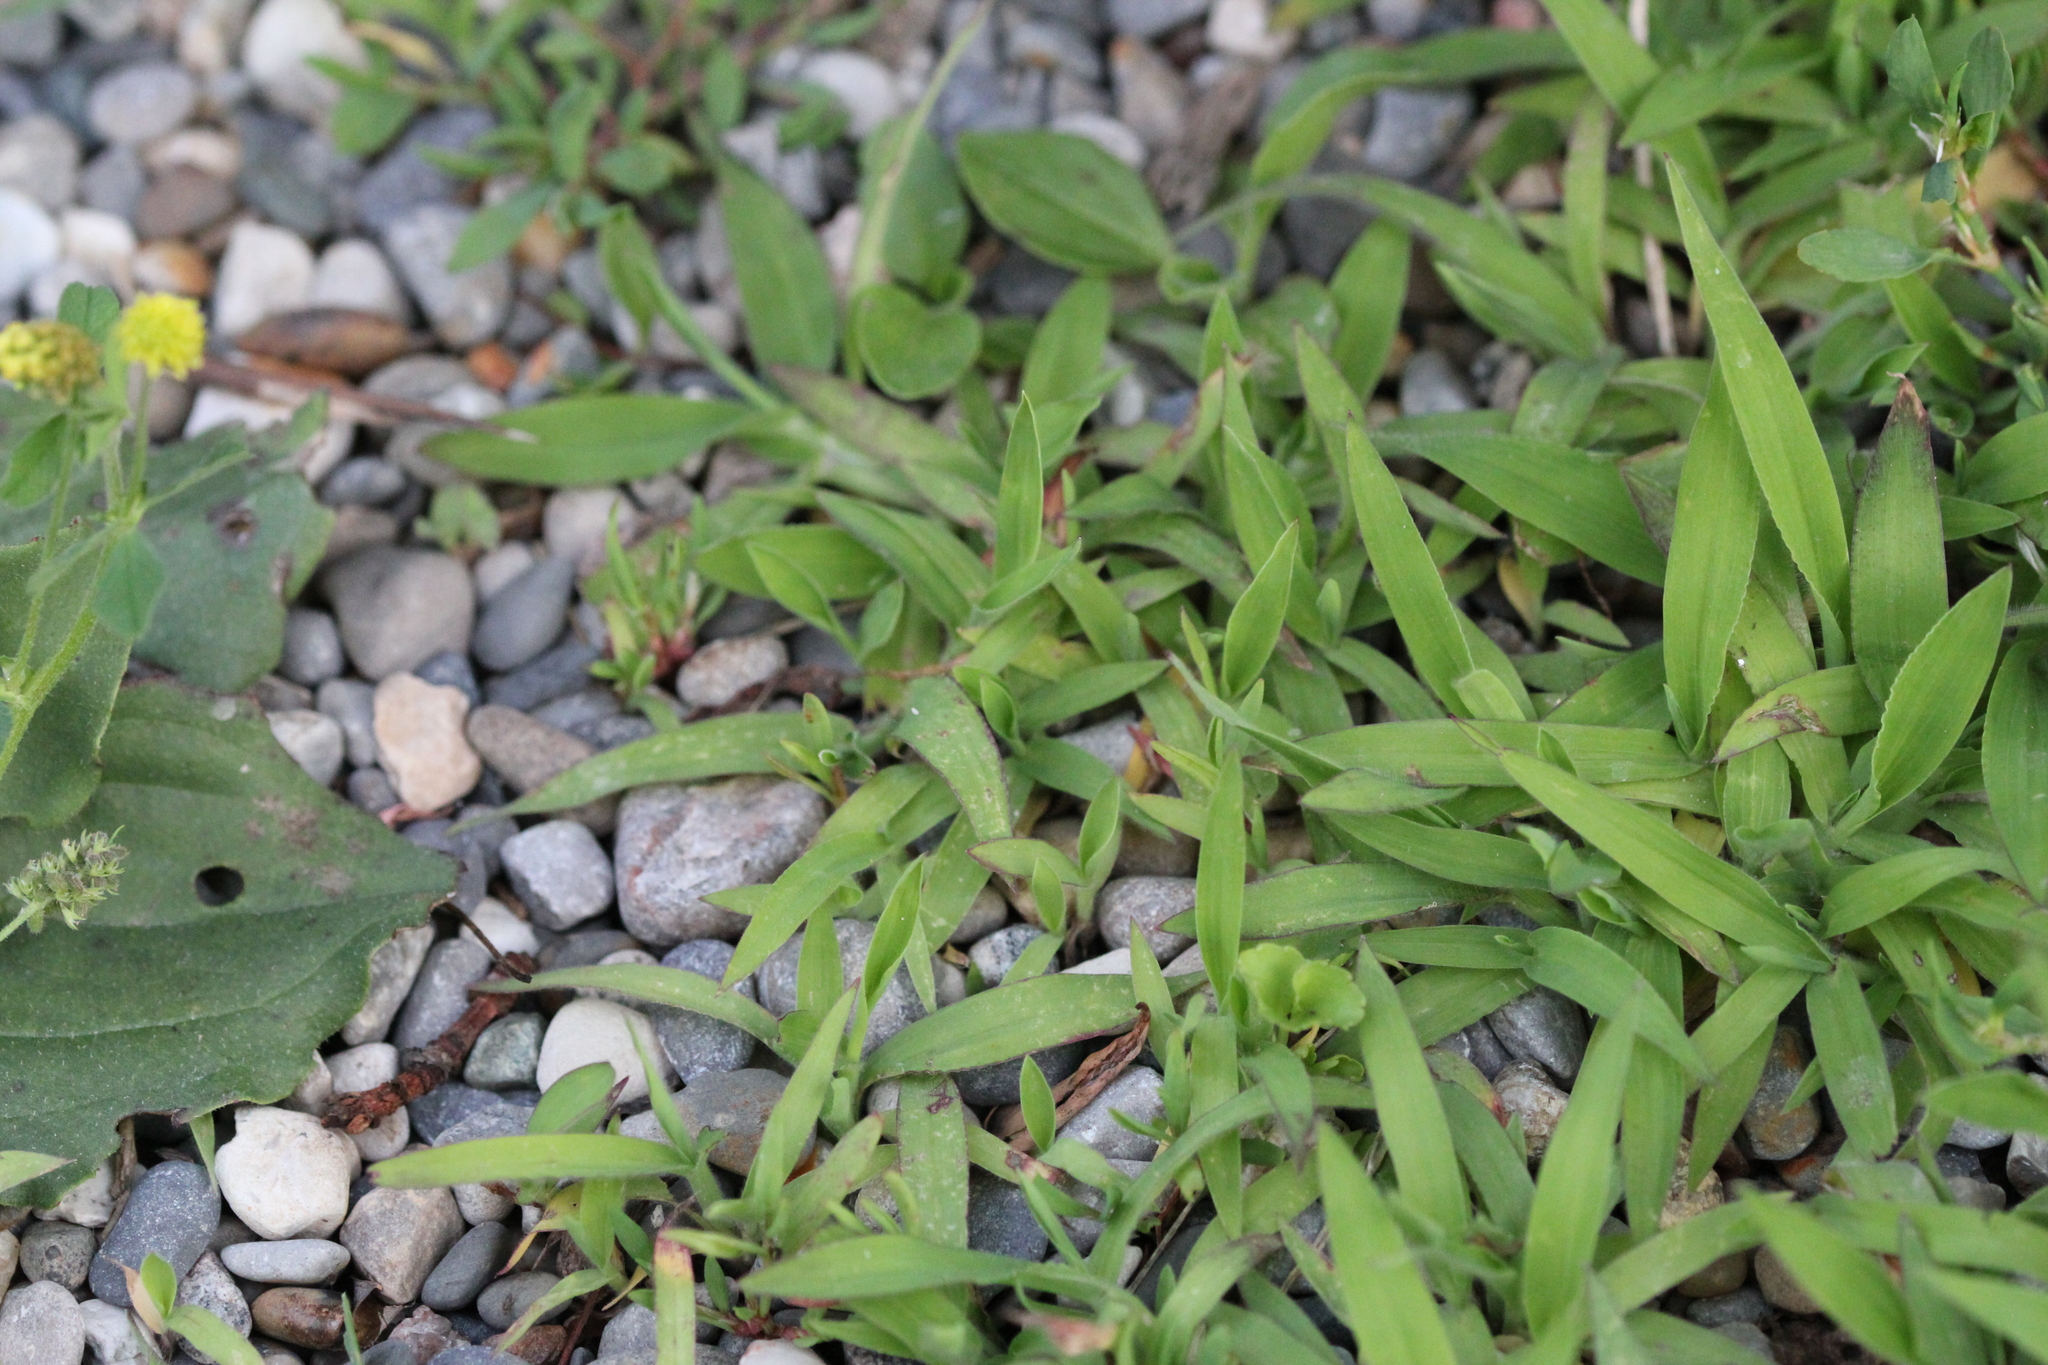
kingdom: Plantae
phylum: Tracheophyta
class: Liliopsida
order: Poales
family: Poaceae
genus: Digitaria
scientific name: Digitaria sanguinalis
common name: Hairy crabgrass
